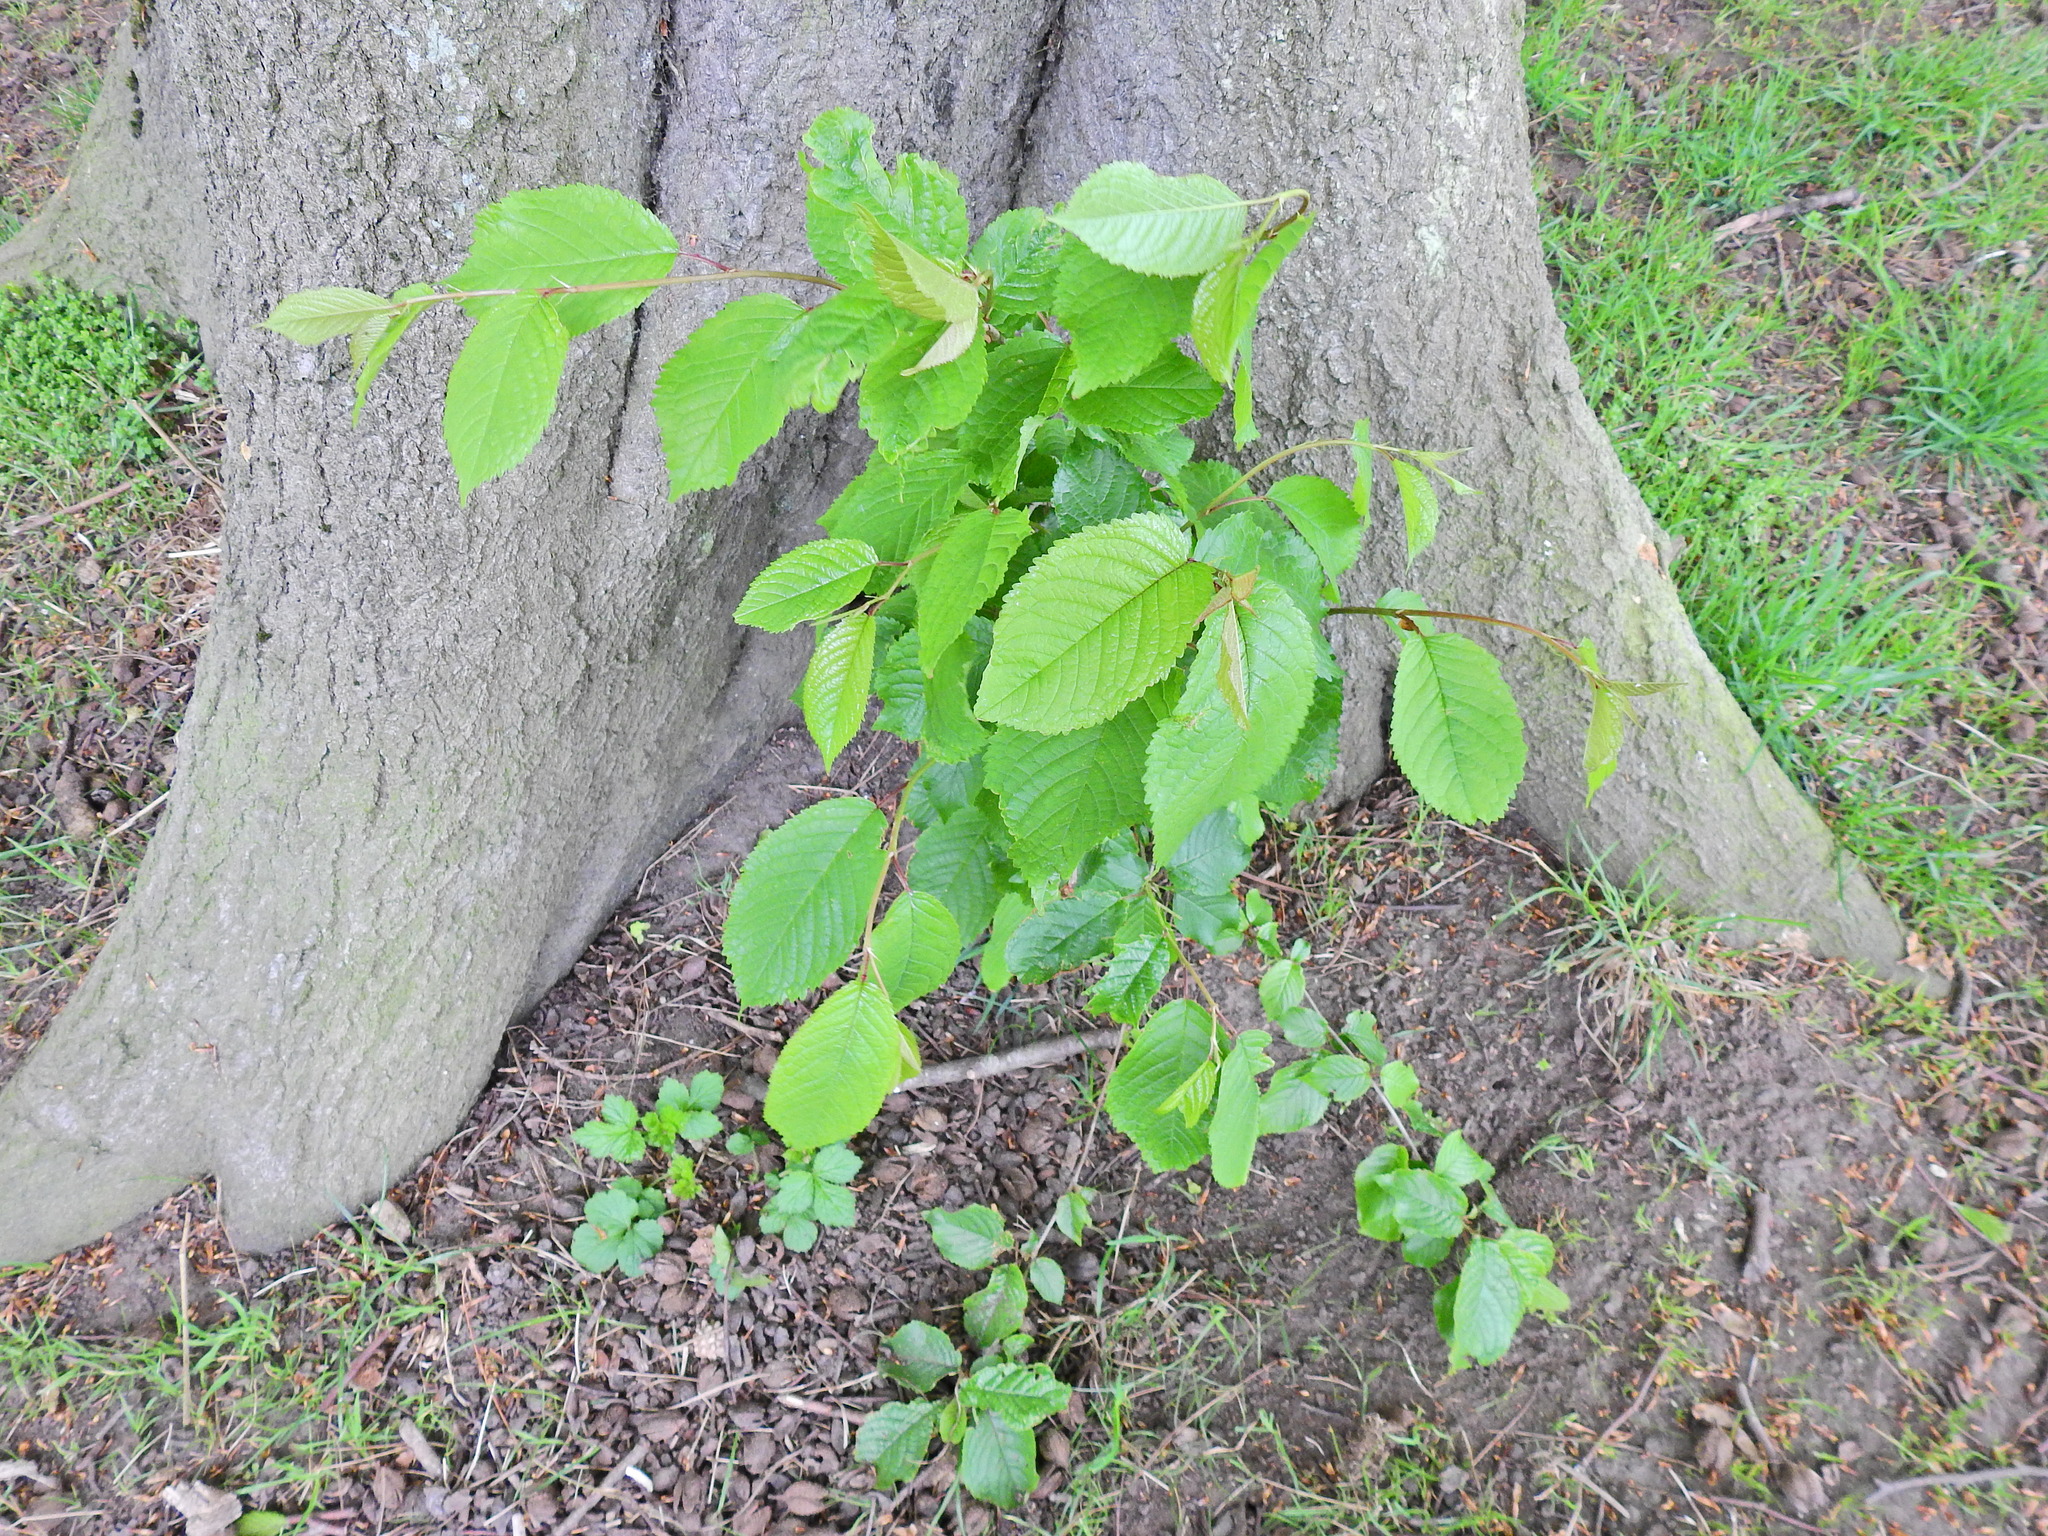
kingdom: Plantae
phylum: Tracheophyta
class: Magnoliopsida
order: Rosales
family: Rosaceae
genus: Prunus
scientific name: Prunus avium
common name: Sweet cherry
